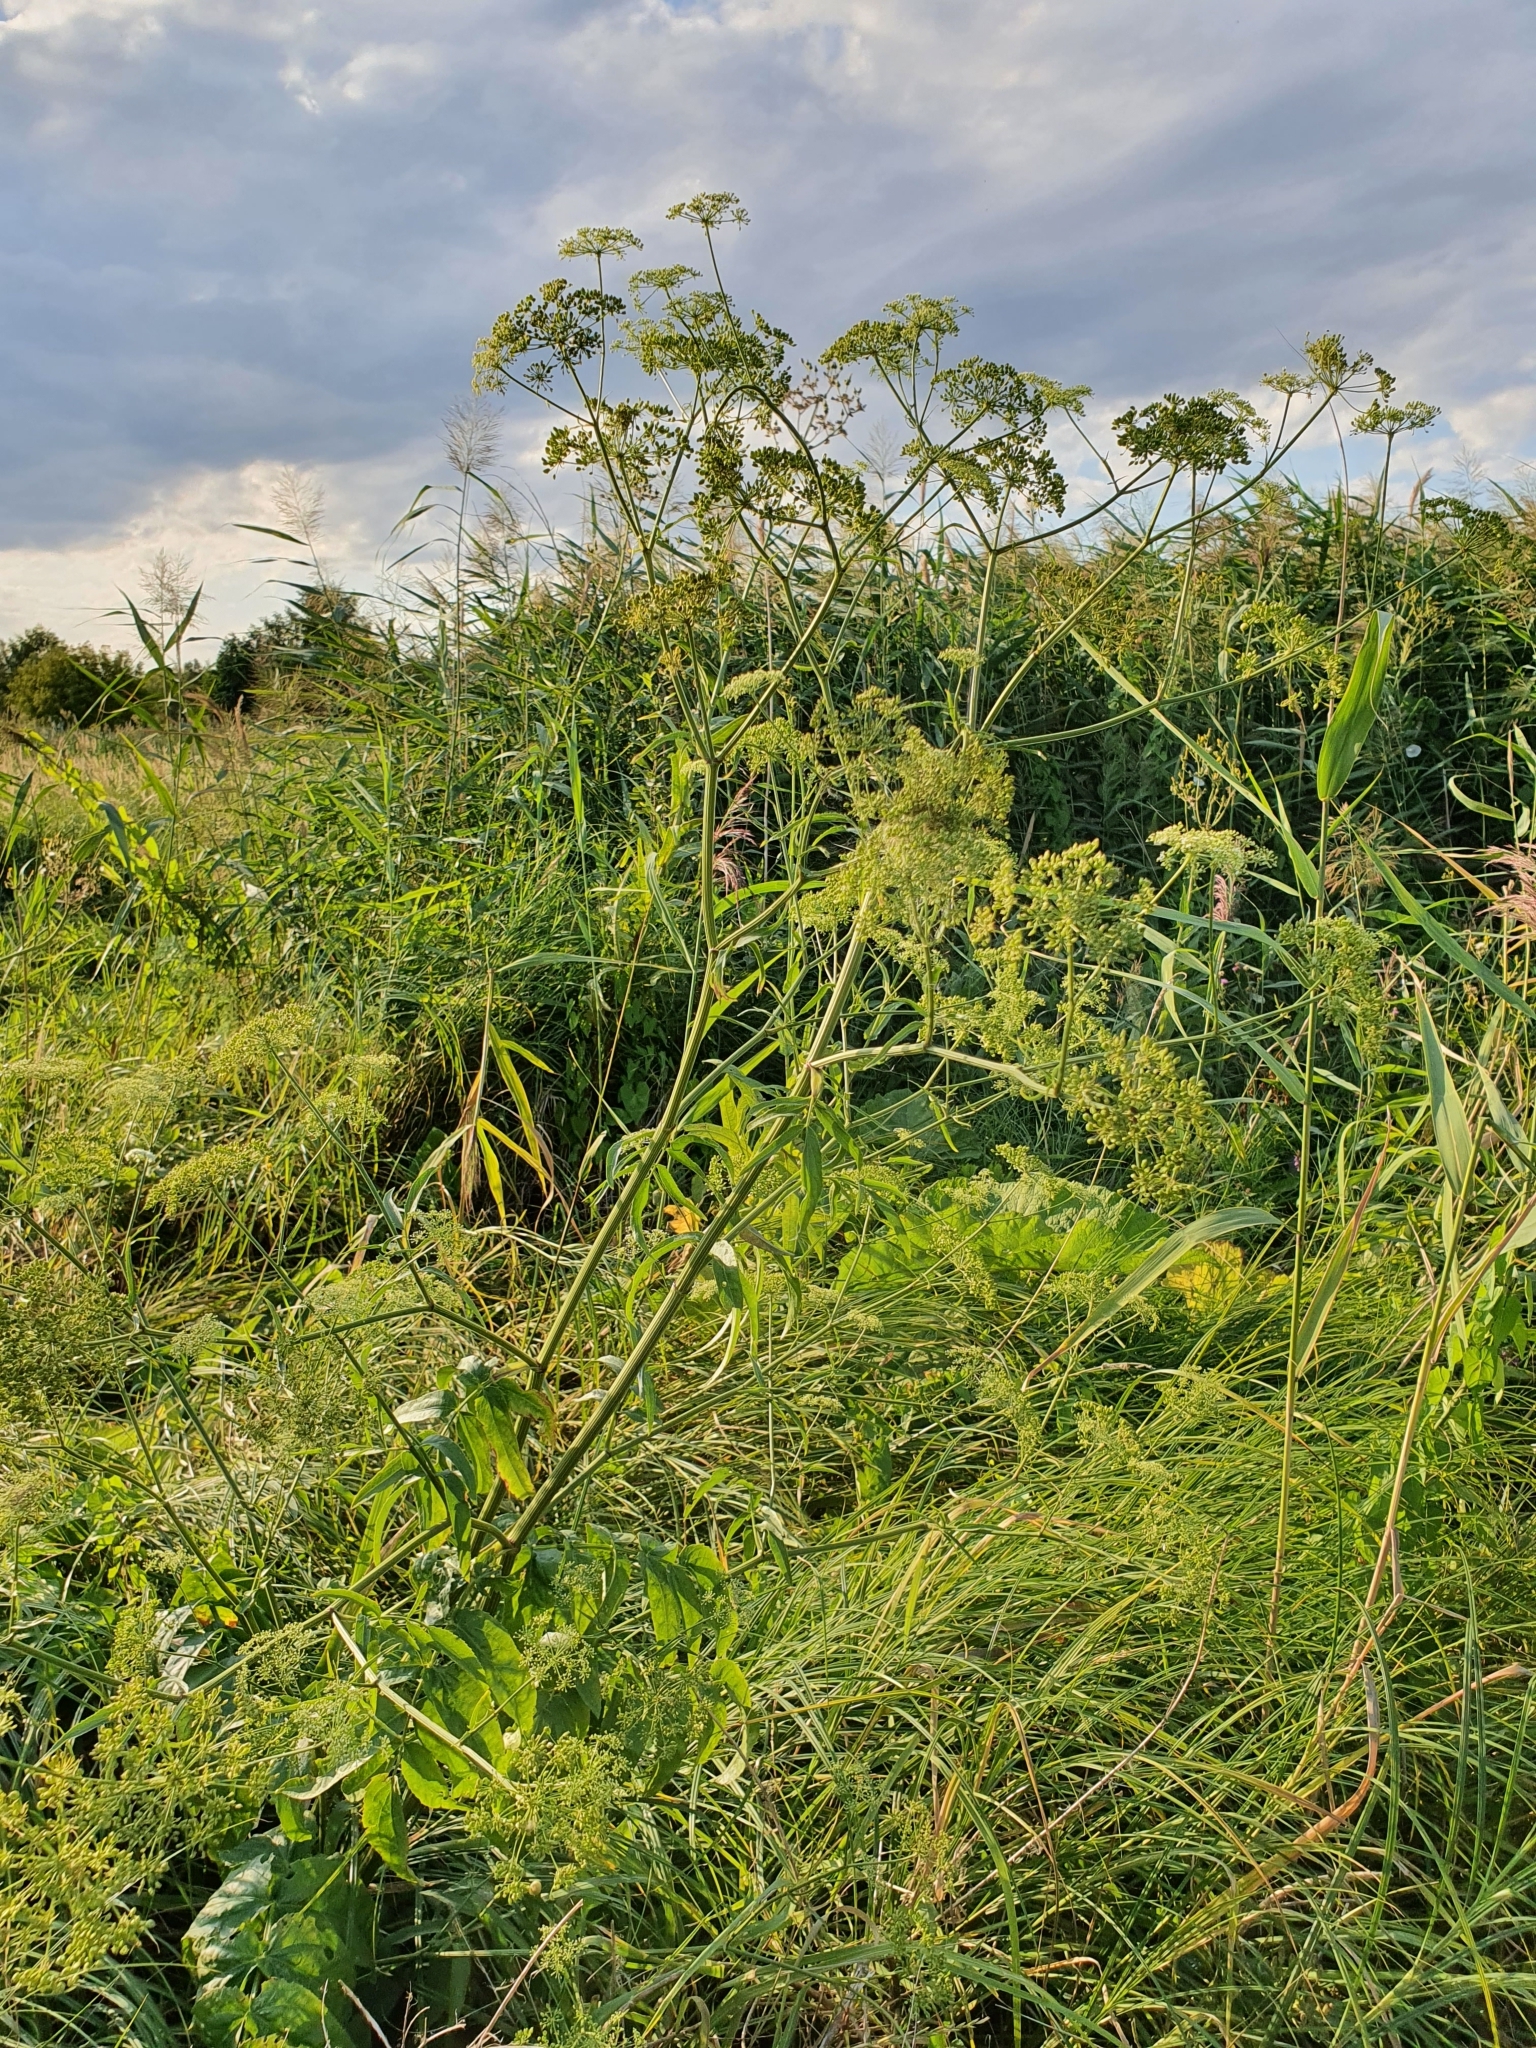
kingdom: Plantae
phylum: Tracheophyta
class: Magnoliopsida
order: Apiales
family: Apiaceae
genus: Sium
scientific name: Sium latifolium
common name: Greater water-parsnip
